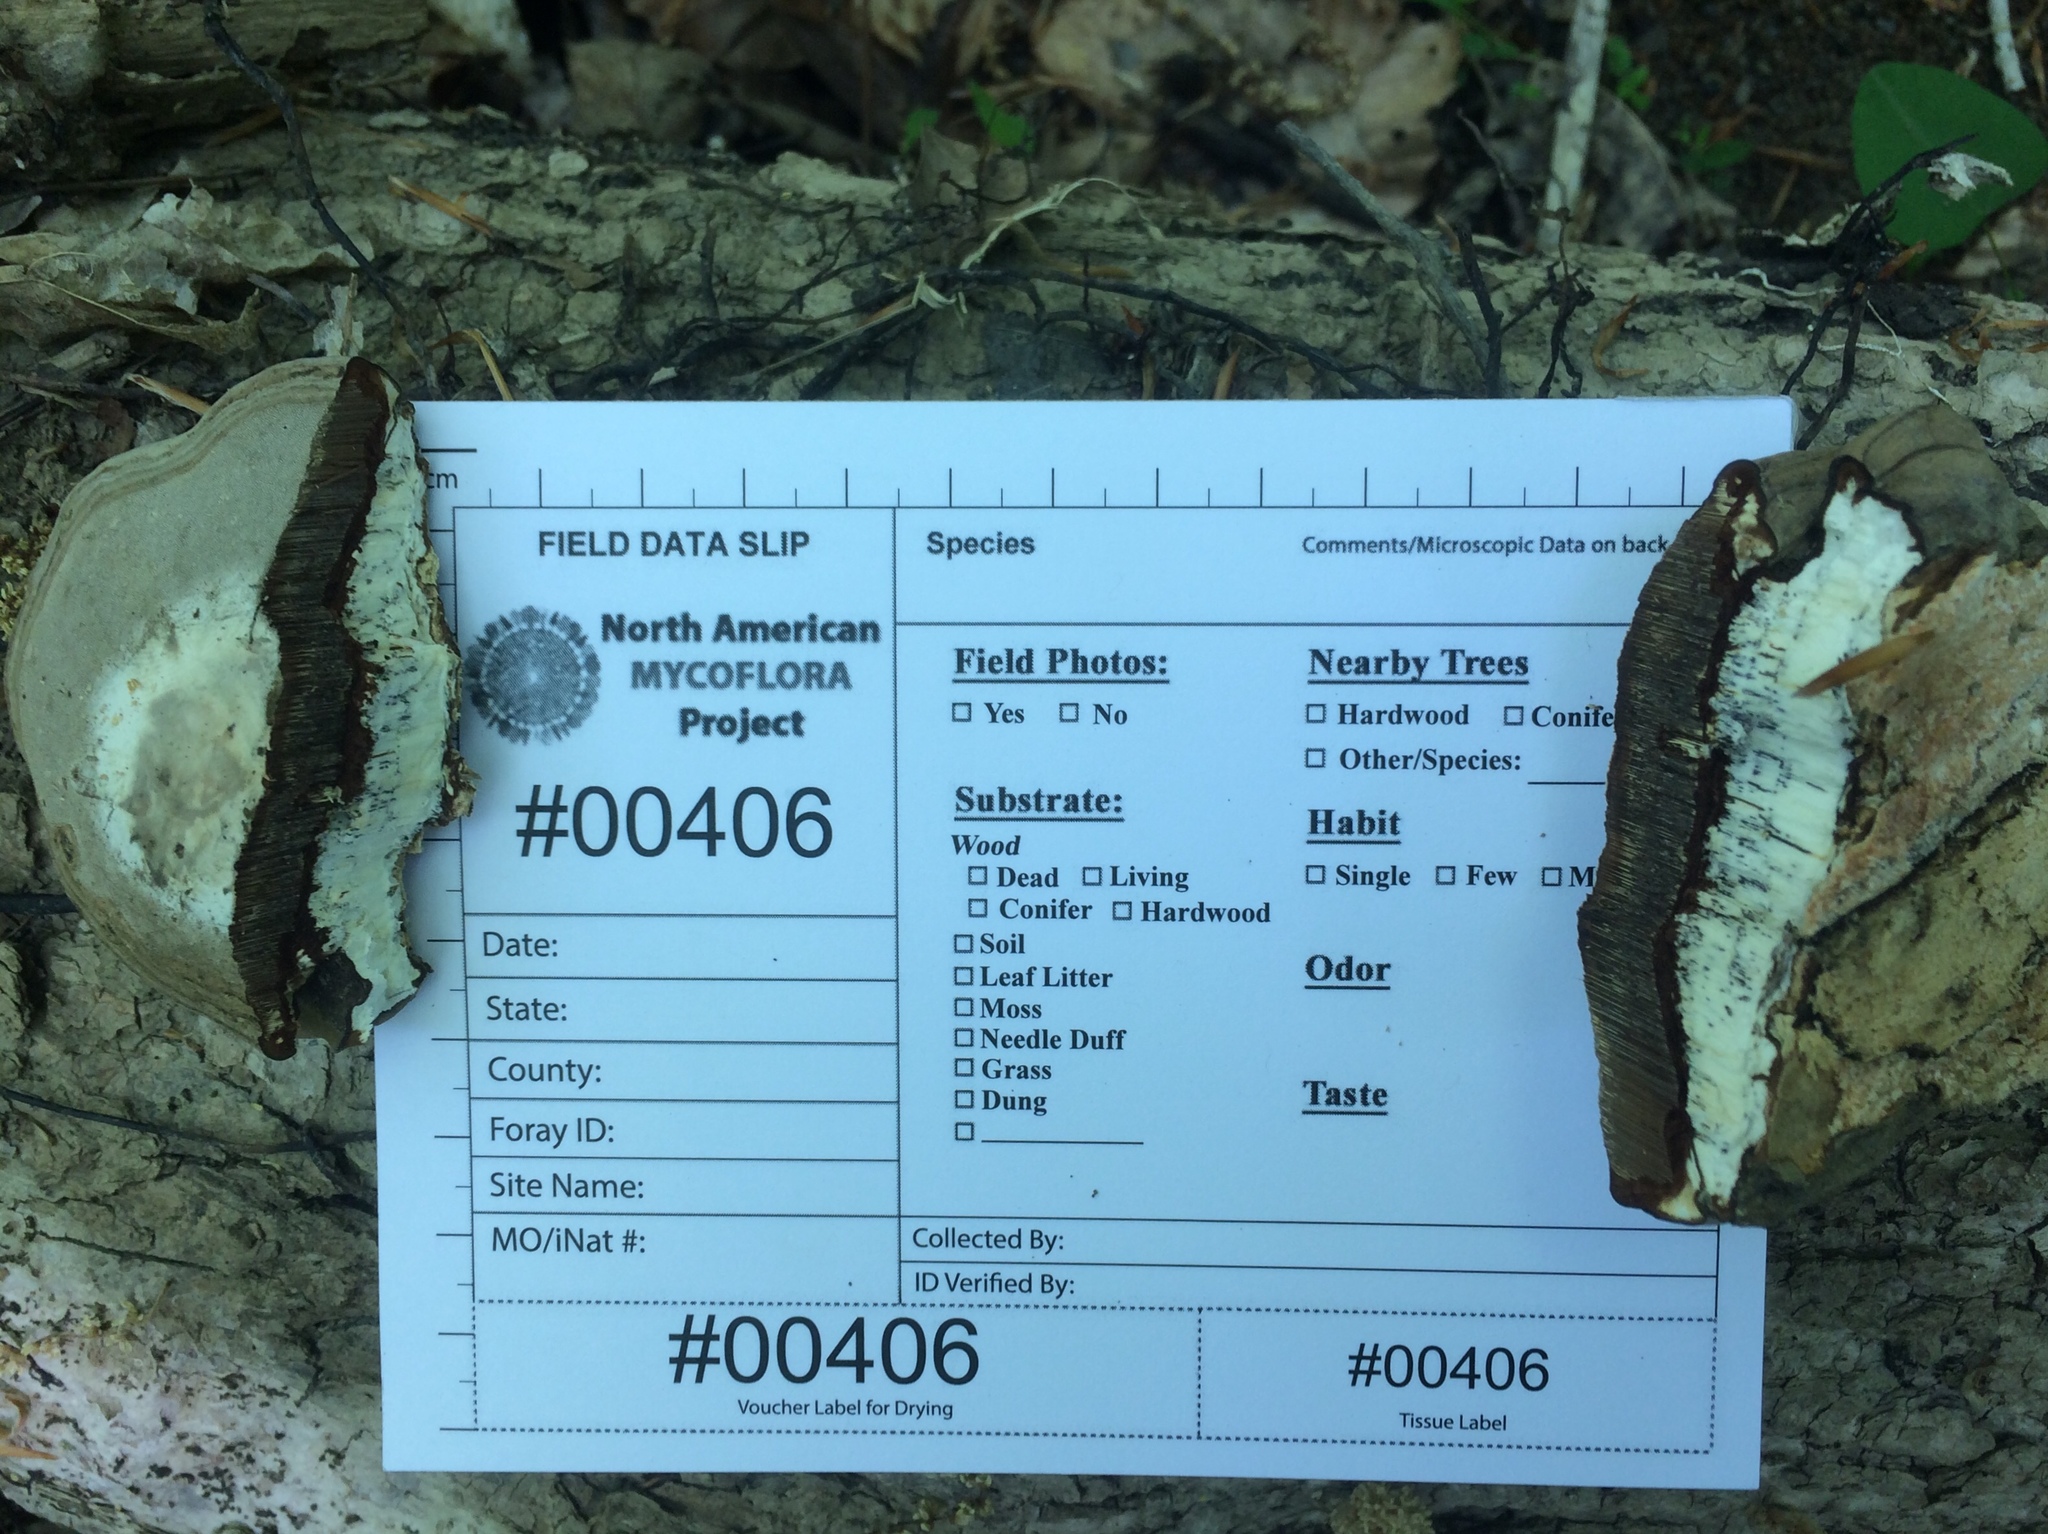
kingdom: Fungi
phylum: Basidiomycota
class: Agaricomycetes
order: Polyporales
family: Polyporaceae
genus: Ganoderma
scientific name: Ganoderma applanatum
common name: Artist's bracket
